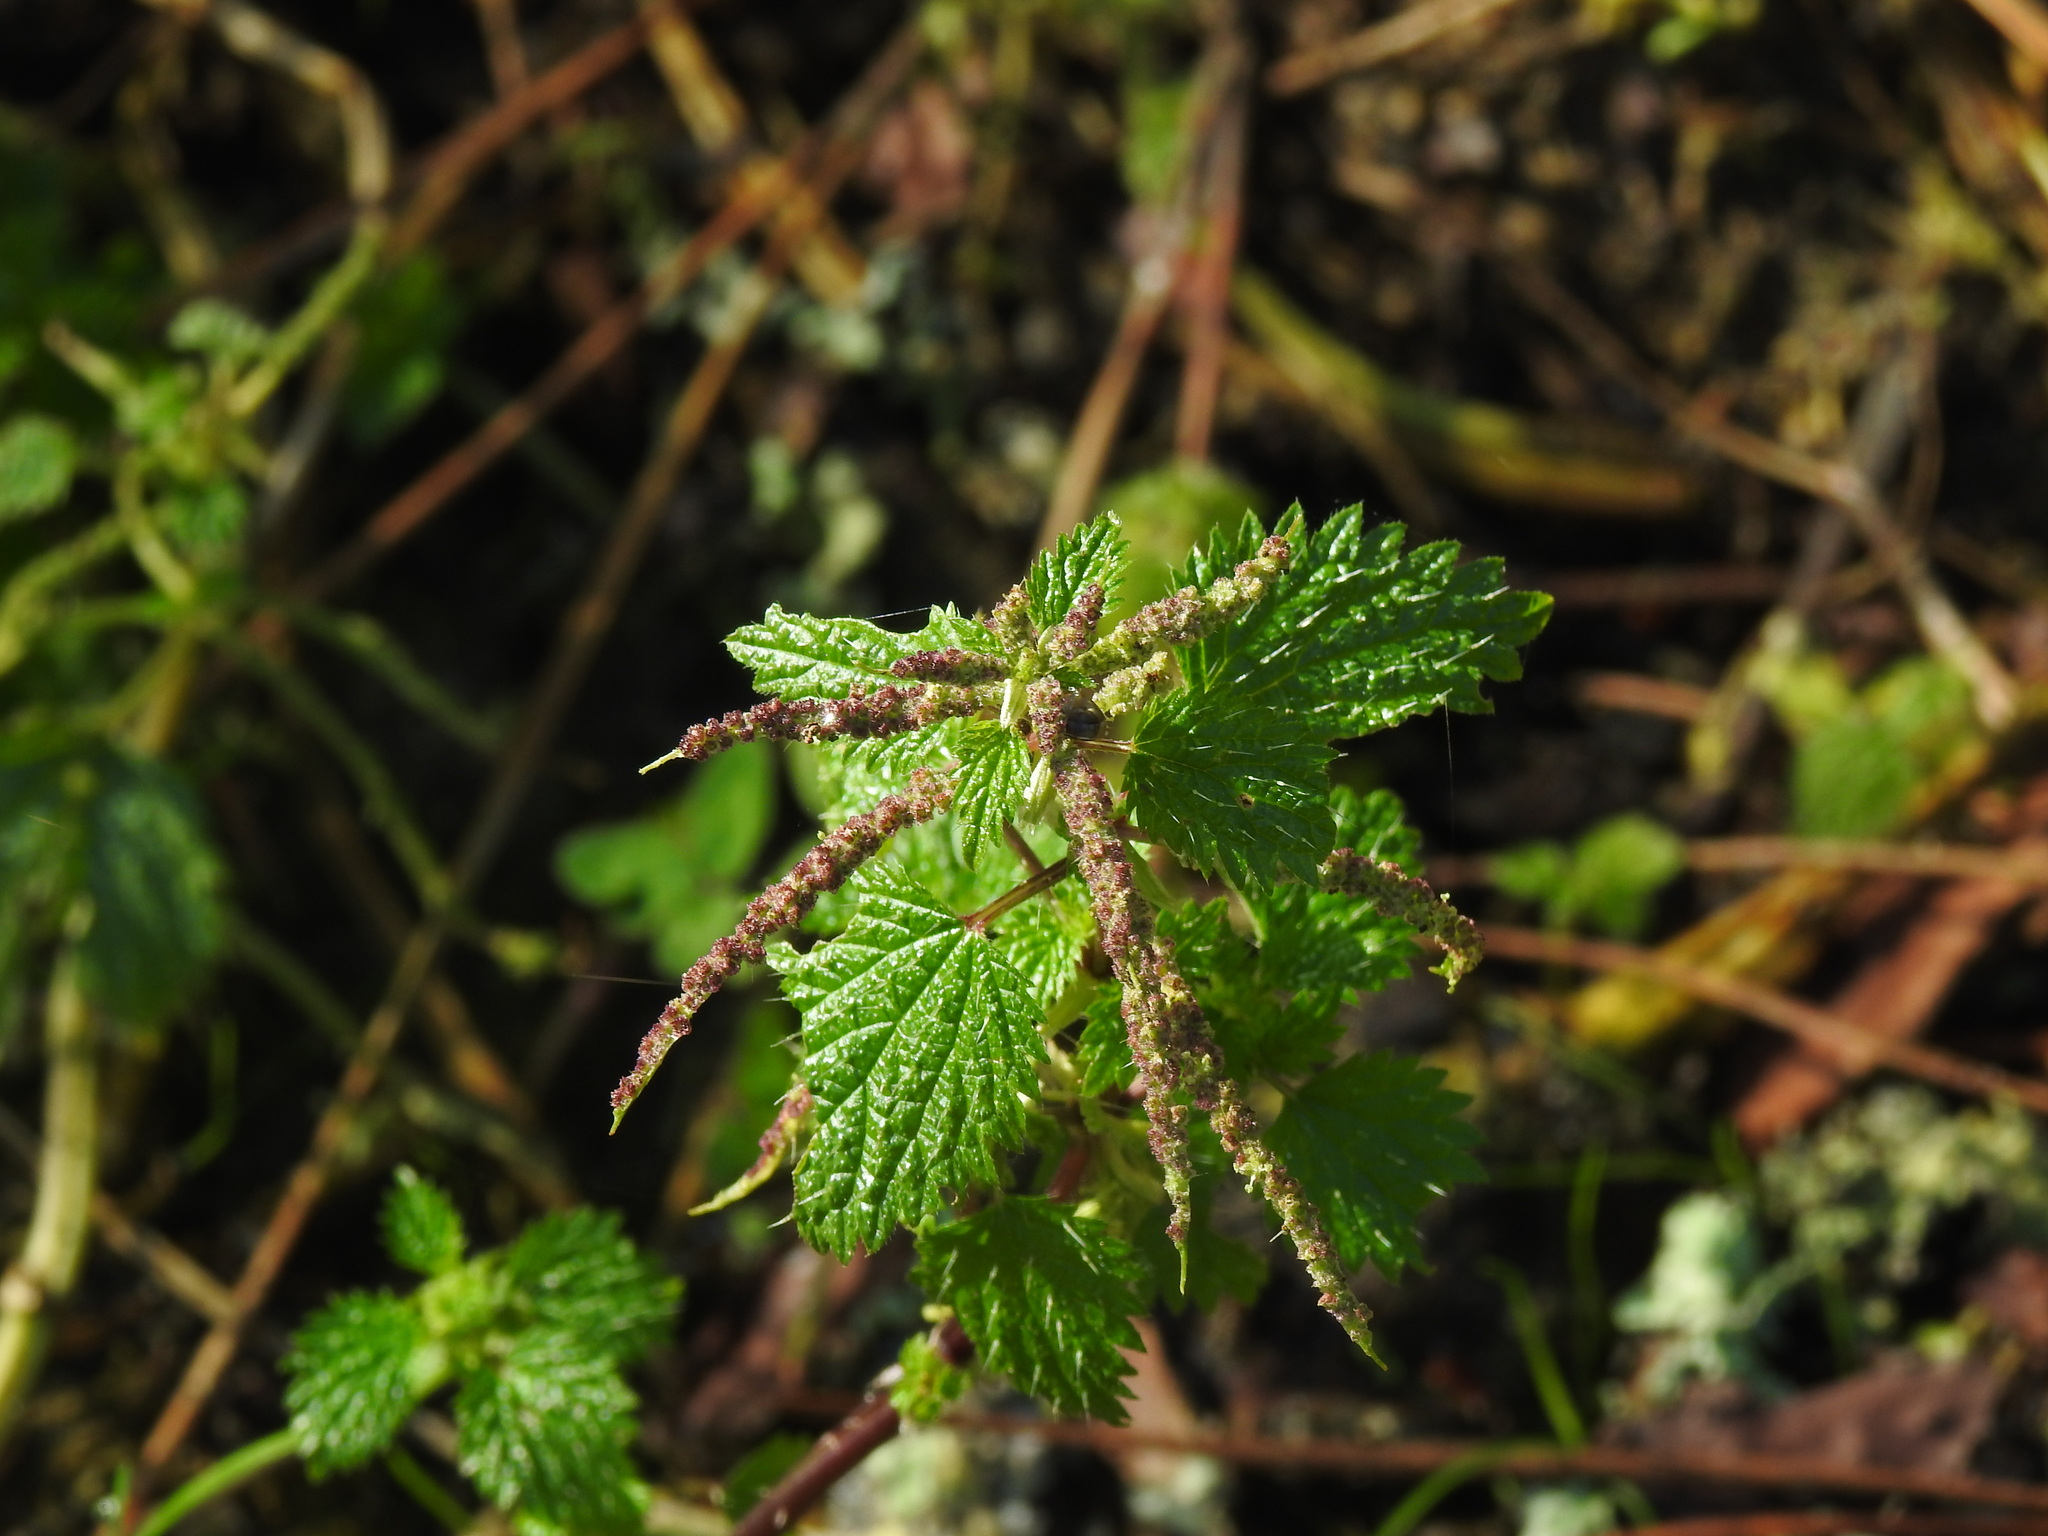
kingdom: Plantae
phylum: Tracheophyta
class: Magnoliopsida
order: Rosales
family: Urticaceae
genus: Urtica
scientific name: Urtica membranacea
